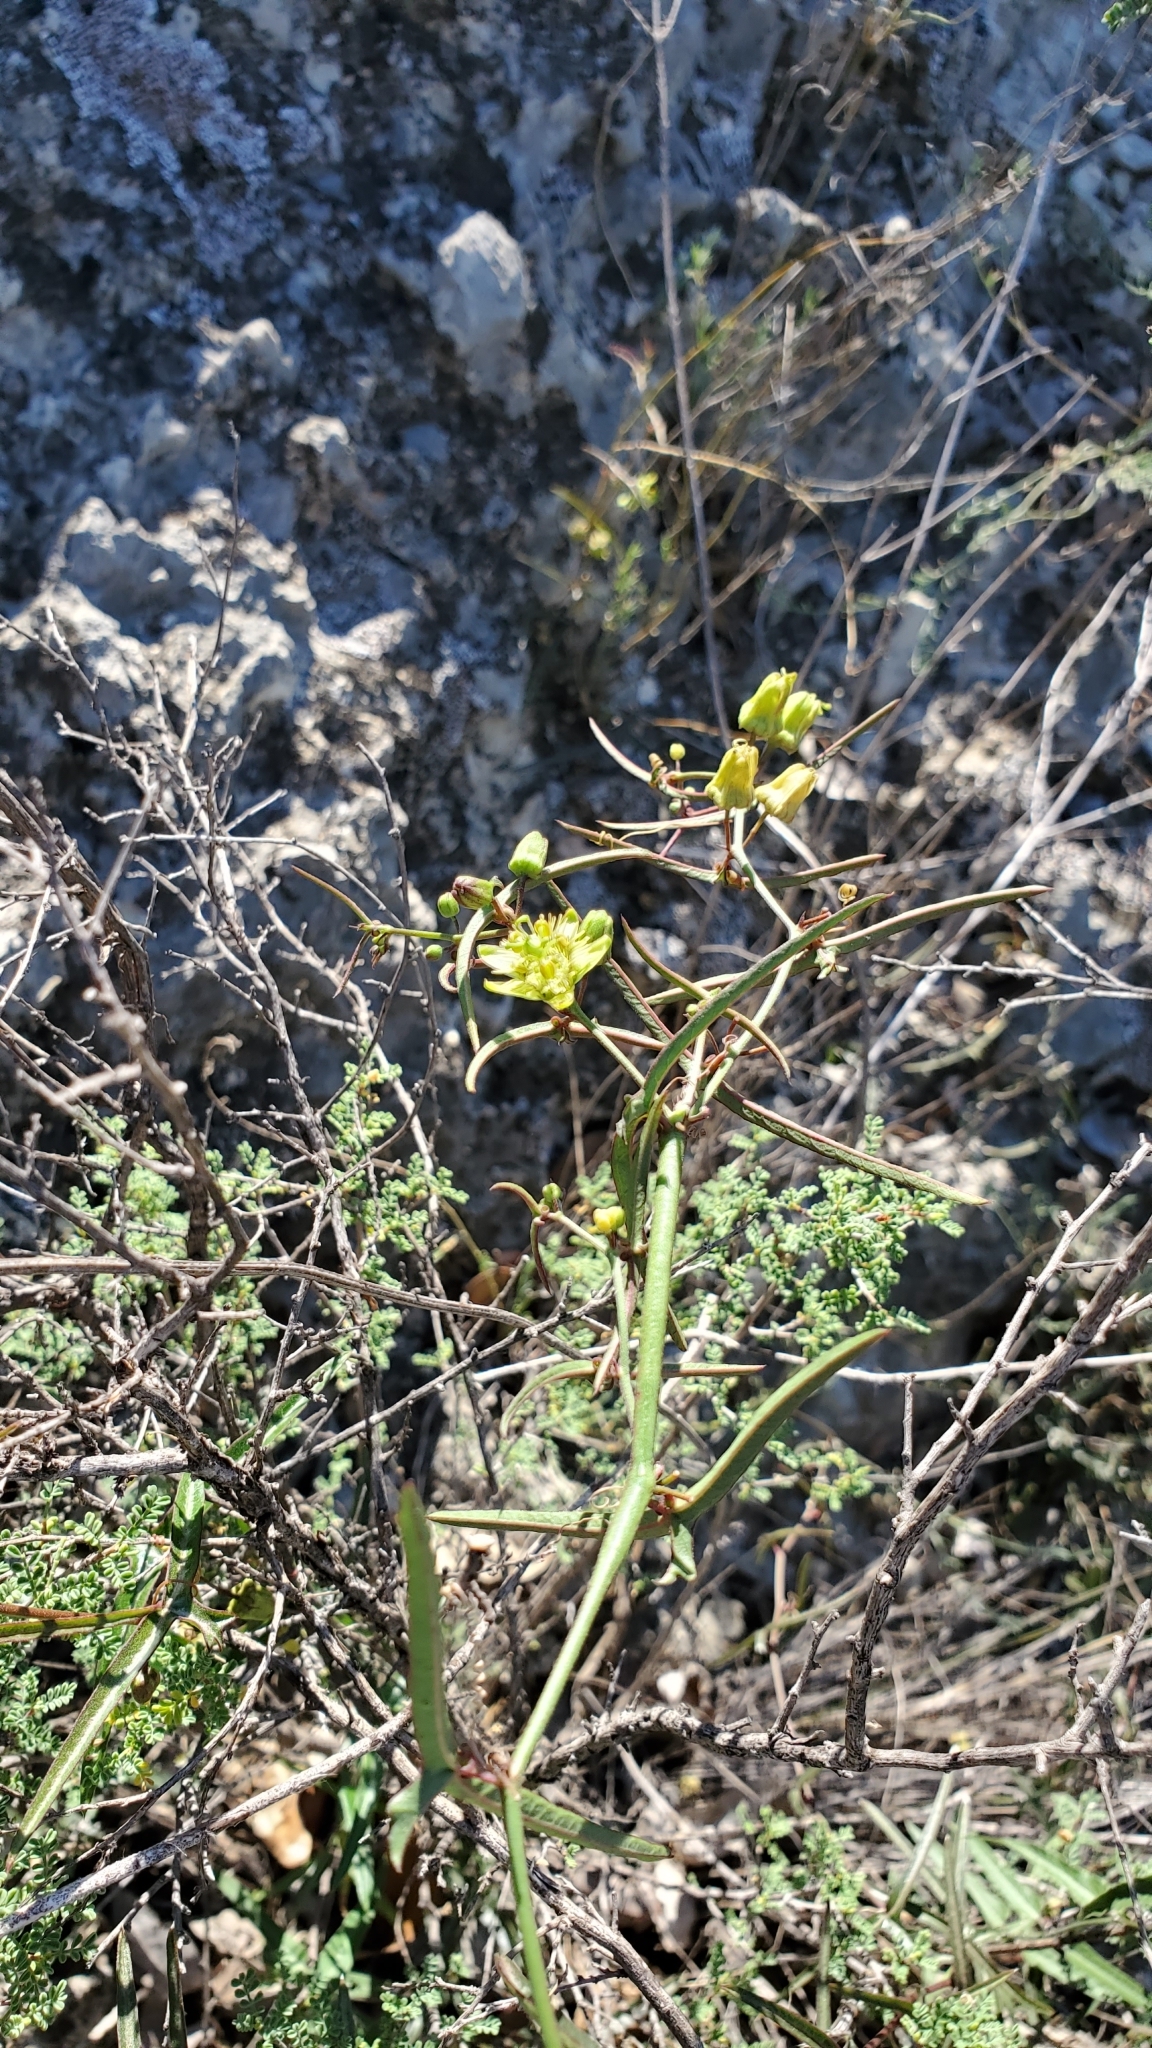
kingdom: Plantae
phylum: Tracheophyta
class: Magnoliopsida
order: Malpighiales
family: Passifloraceae
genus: Passiflora
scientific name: Passiflora tenuiloba
